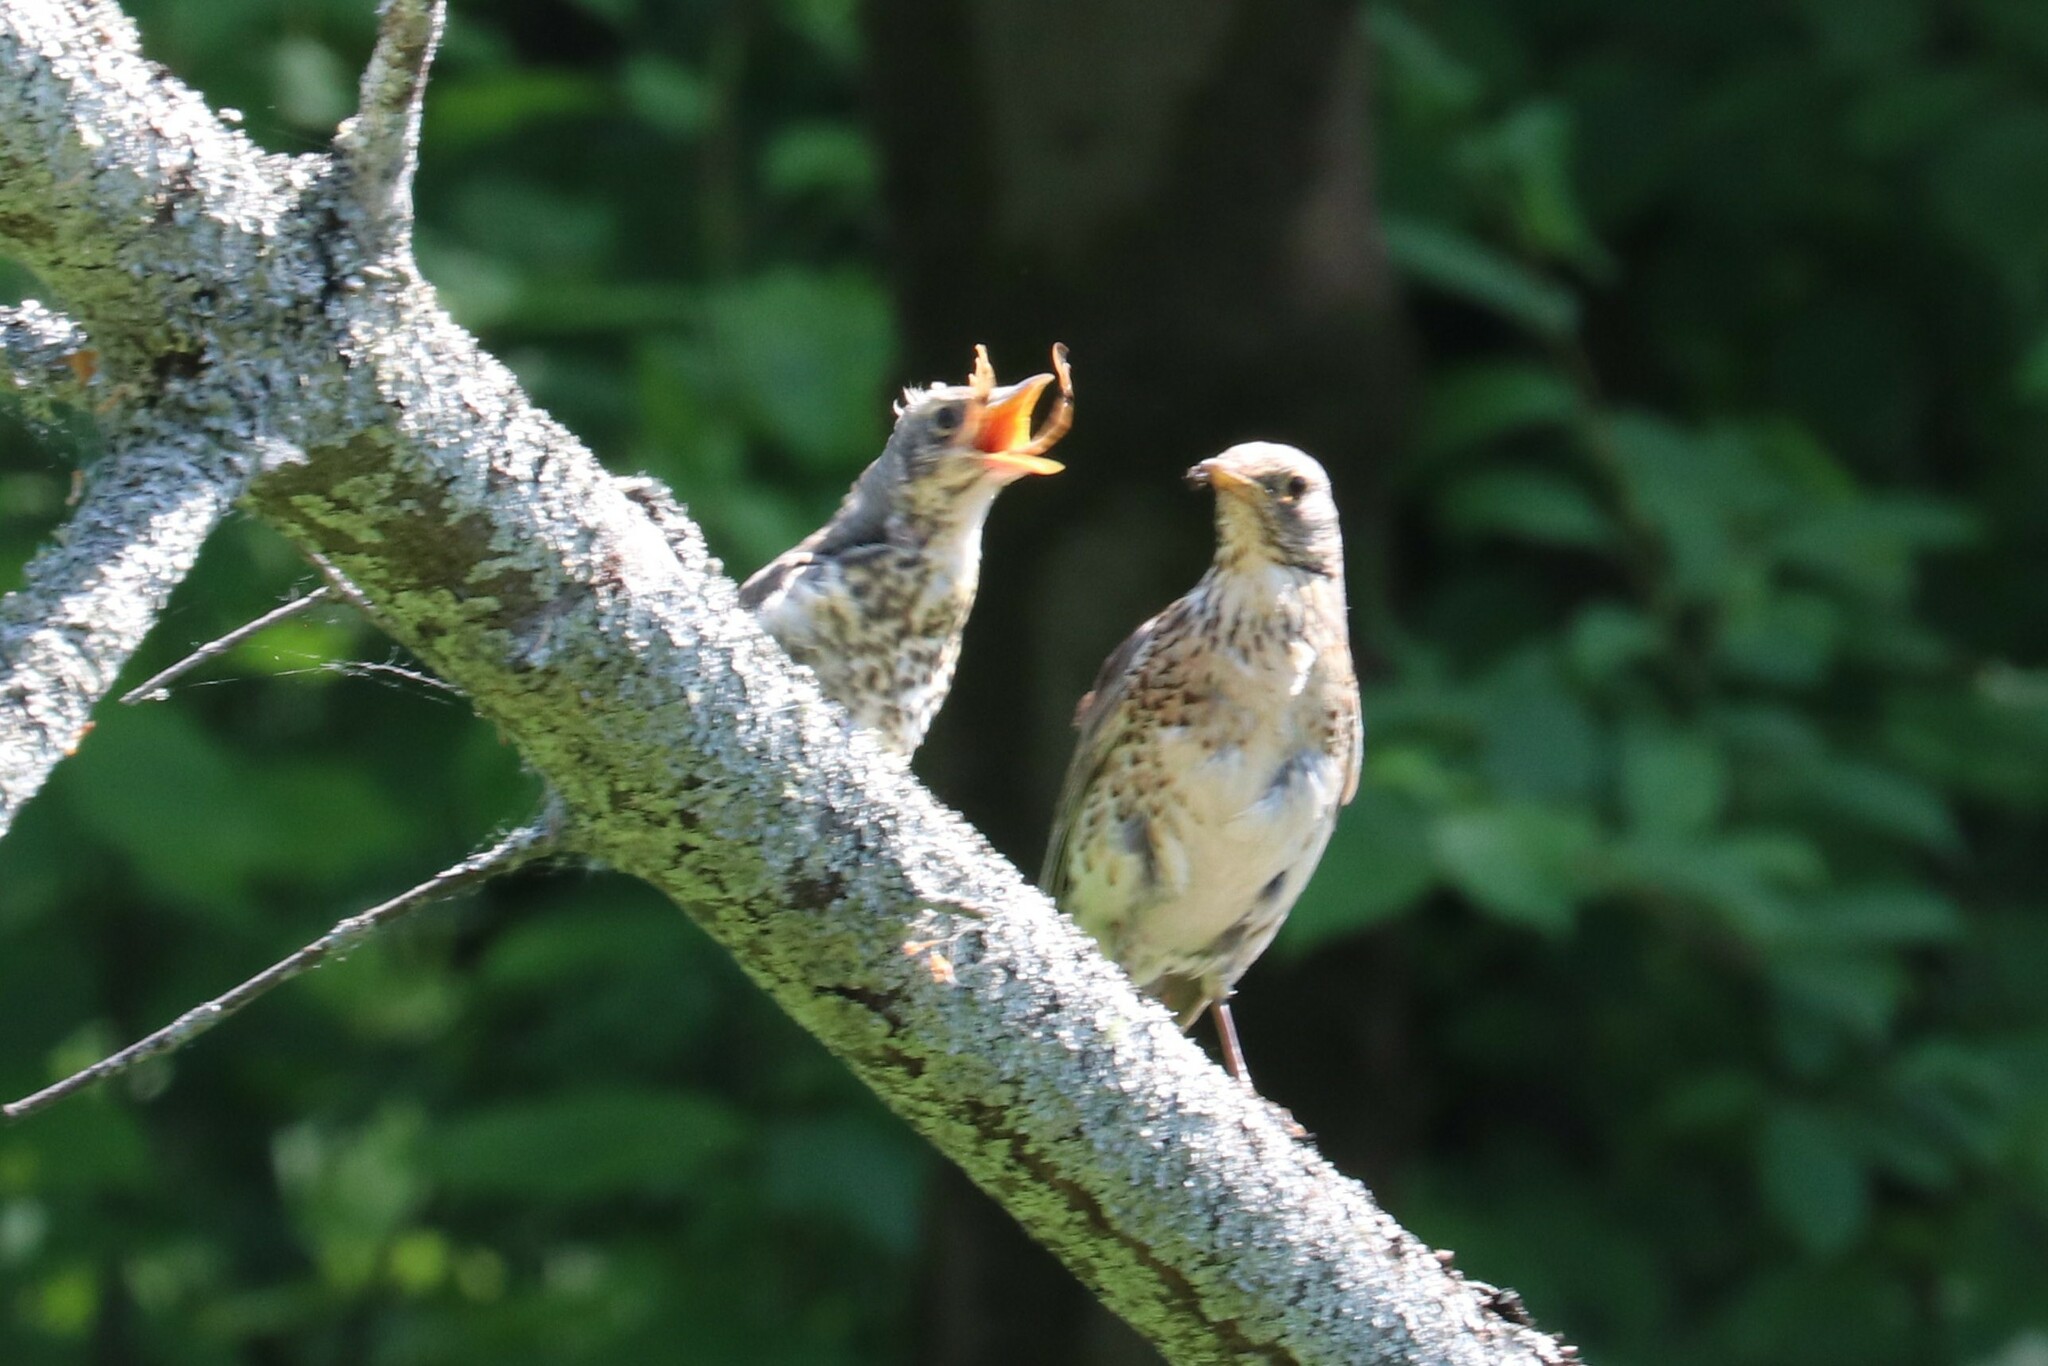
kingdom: Animalia
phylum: Chordata
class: Aves
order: Passeriformes
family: Turdidae
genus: Turdus
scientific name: Turdus pilaris
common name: Fieldfare
